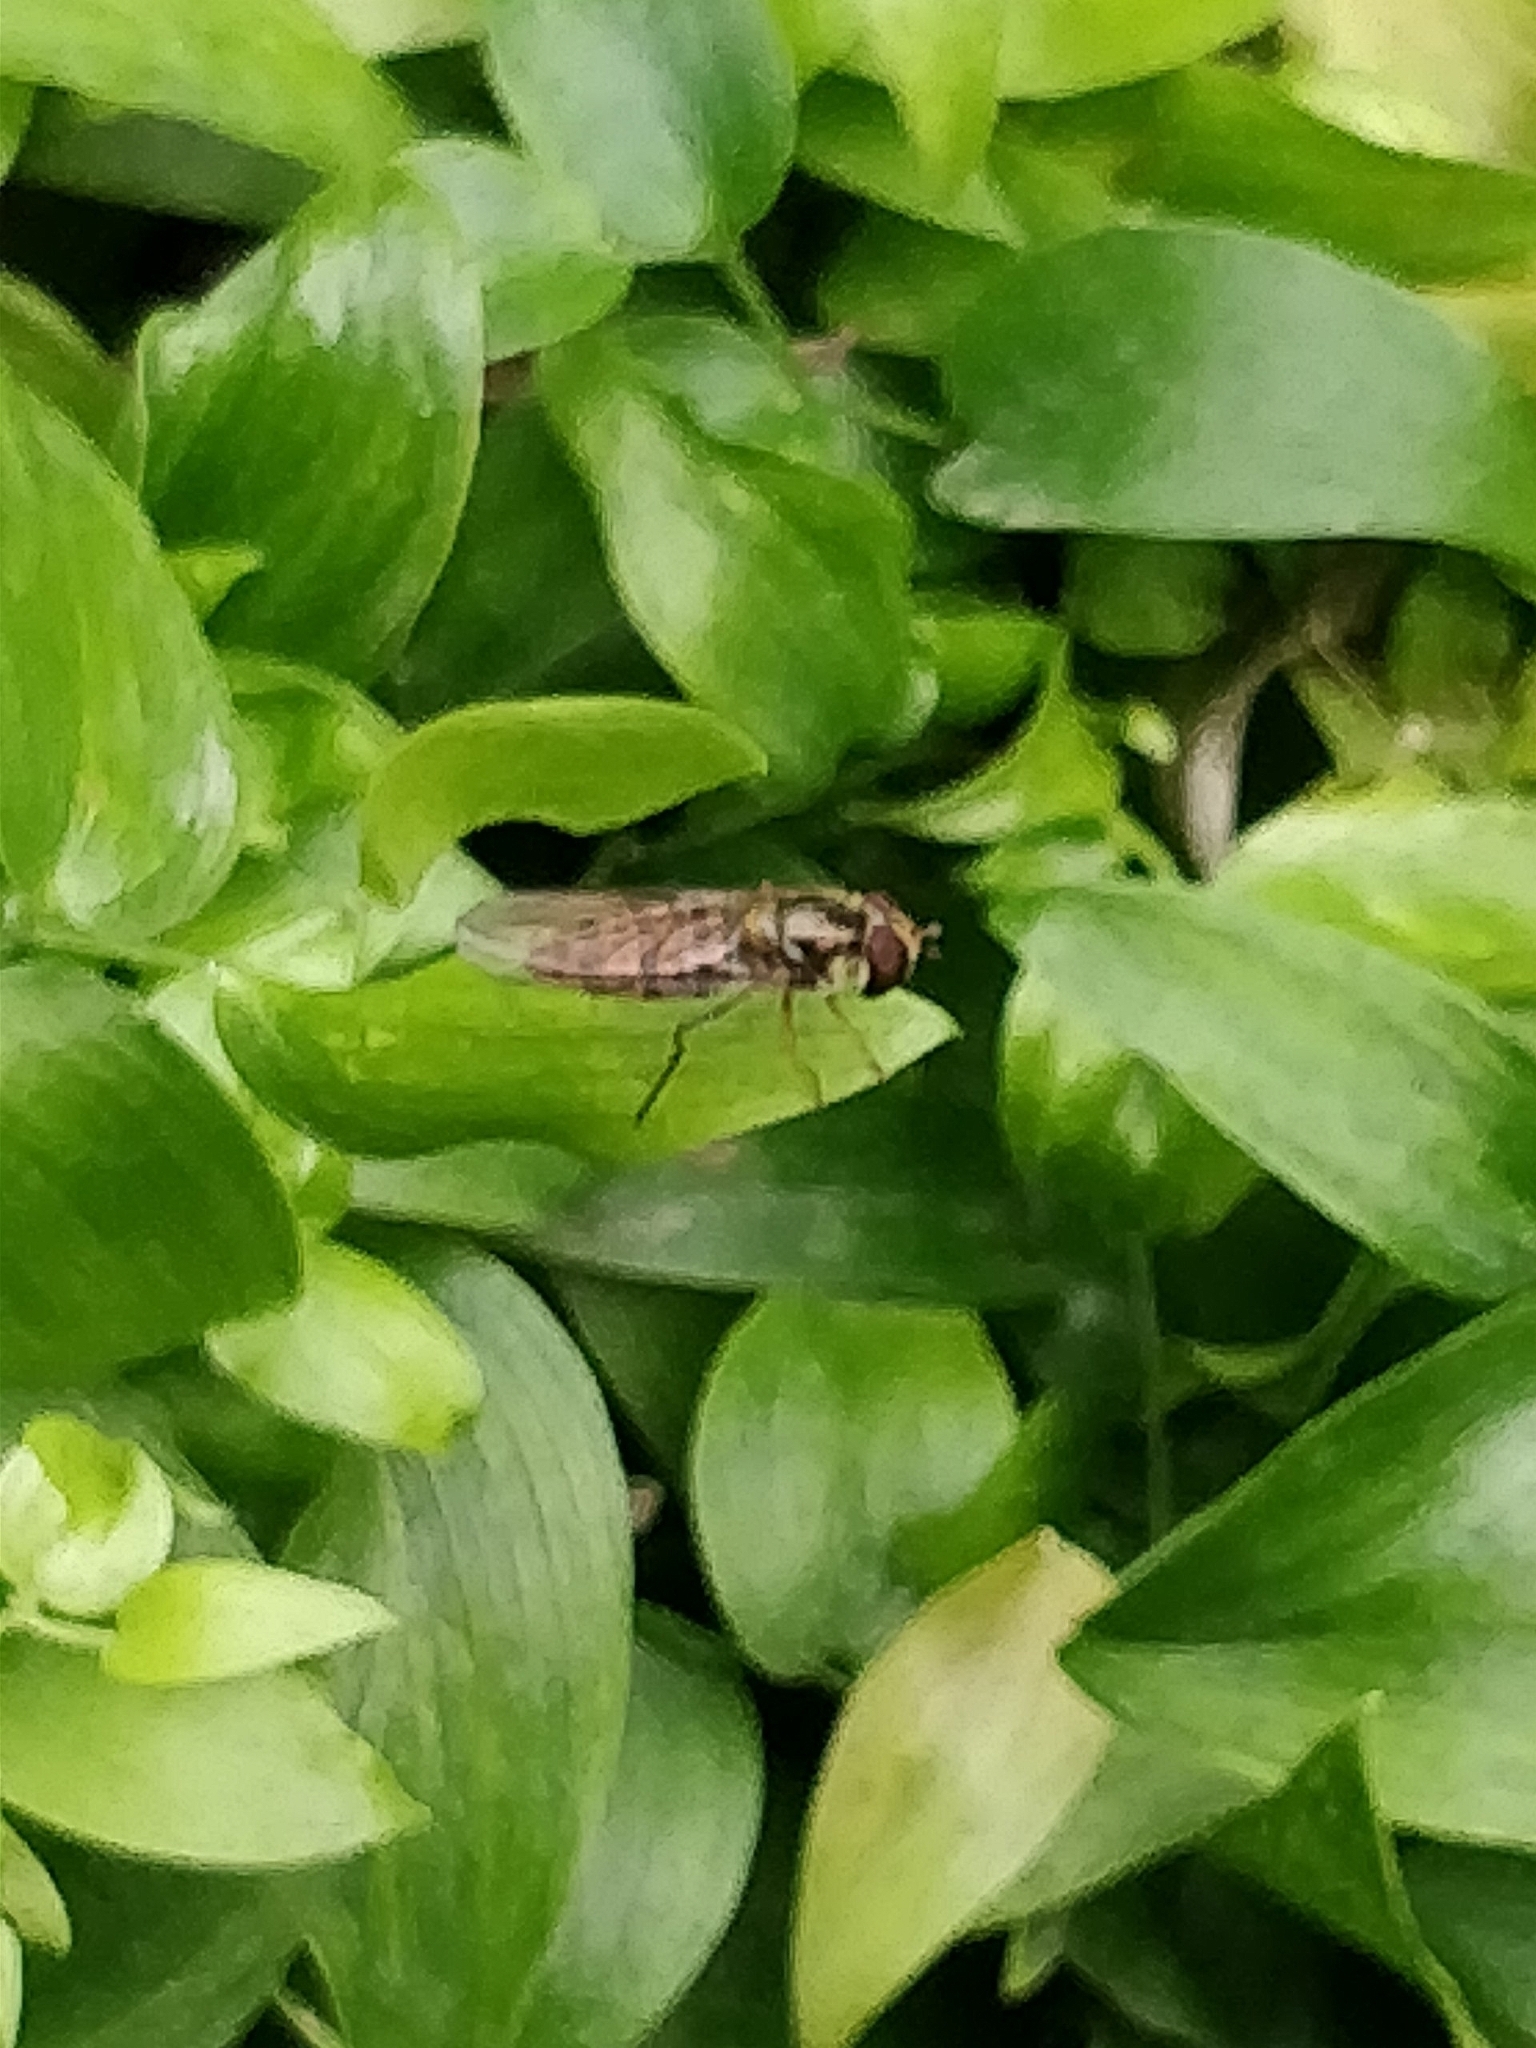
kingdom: Animalia
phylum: Arthropoda
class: Insecta
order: Diptera
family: Syrphidae
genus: Episyrphus
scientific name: Episyrphus balteatus
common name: Marmalade hoverfly
